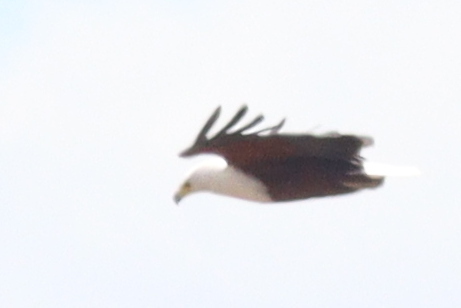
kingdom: Animalia
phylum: Chordata
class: Aves
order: Accipitriformes
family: Accipitridae
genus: Haliaeetus
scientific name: Haliaeetus vocifer
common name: African fish eagle
